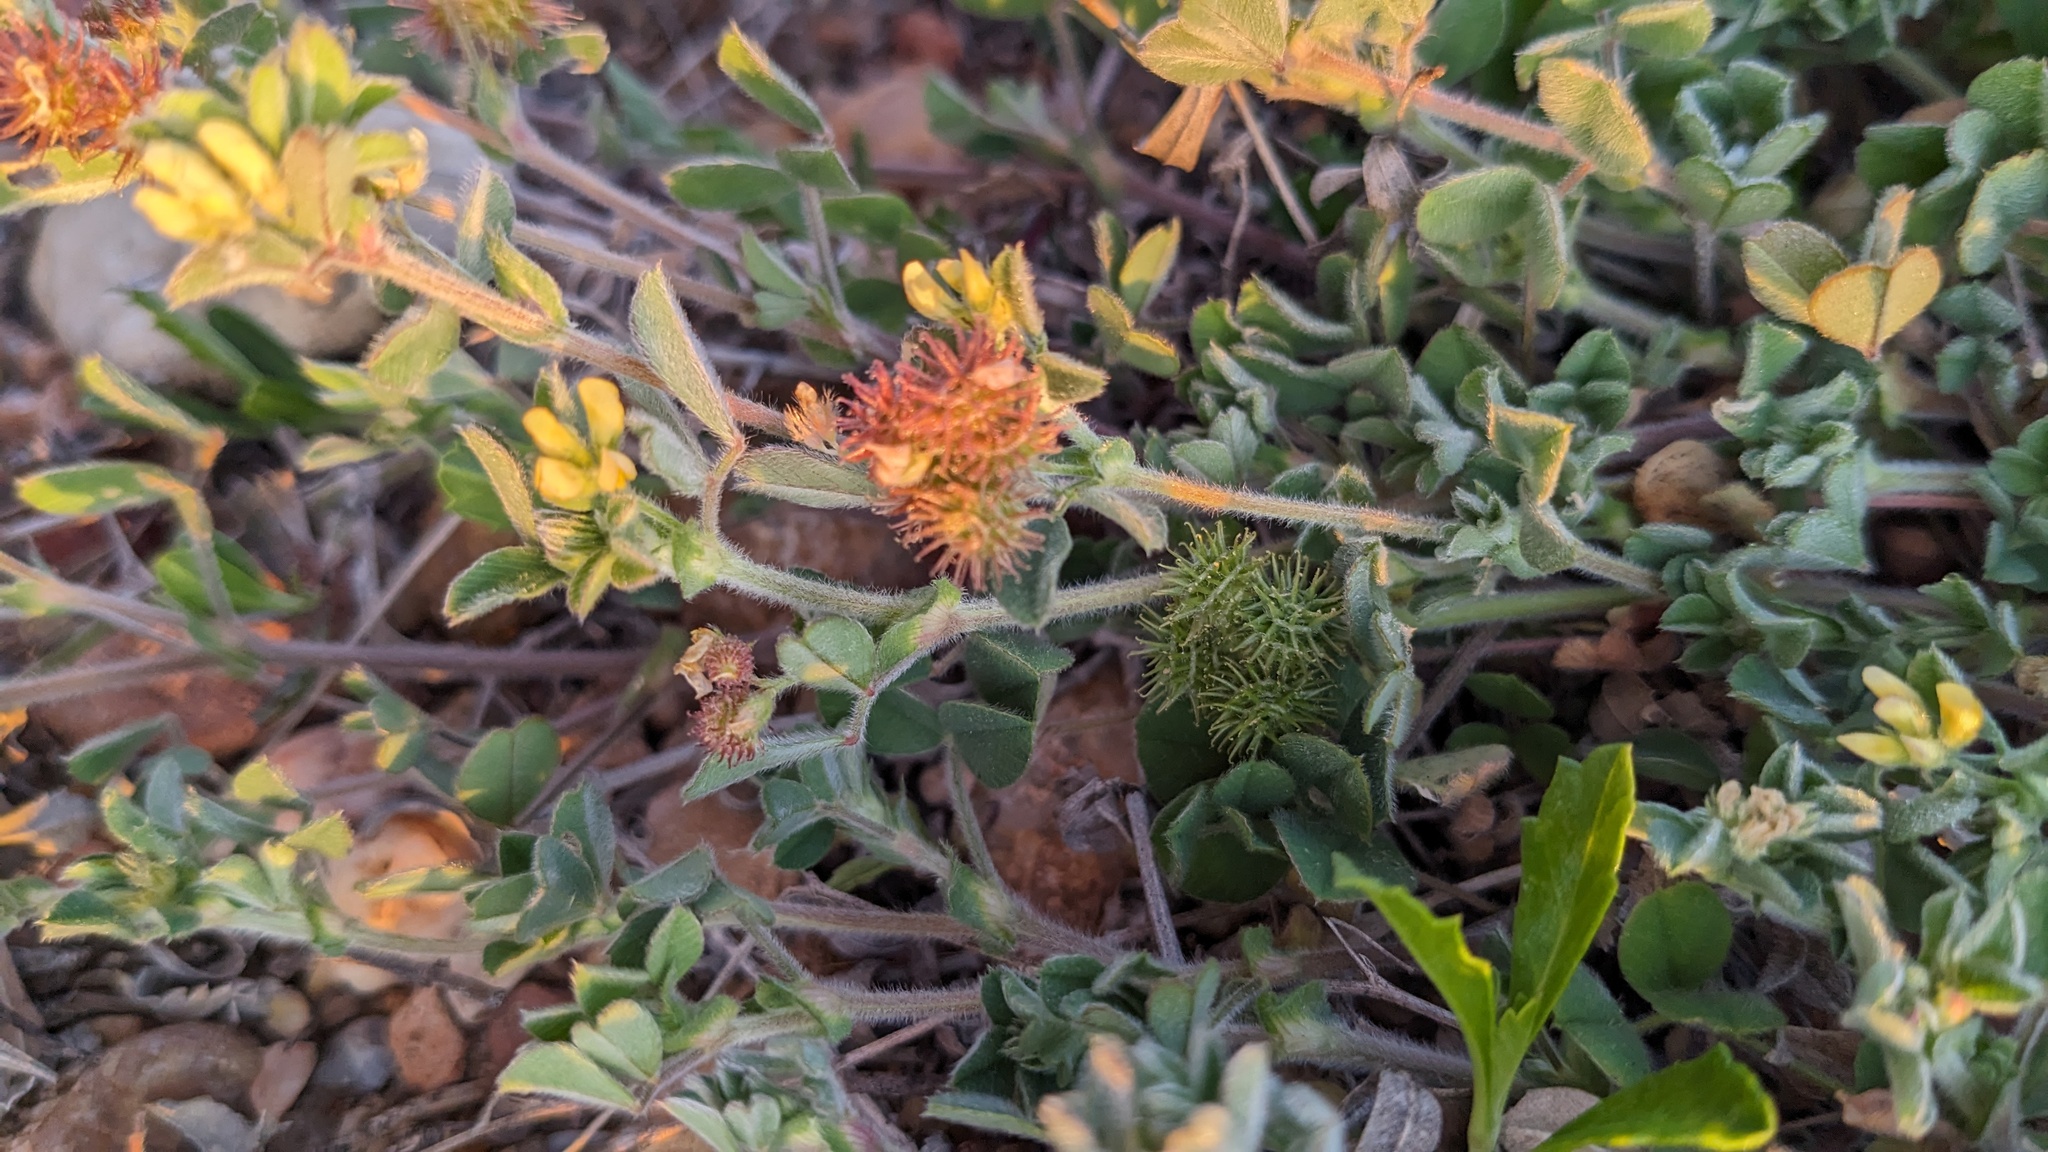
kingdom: Plantae
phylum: Tracheophyta
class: Magnoliopsida
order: Fabales
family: Fabaceae
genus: Medicago
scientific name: Medicago minima
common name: Little bur-clover
